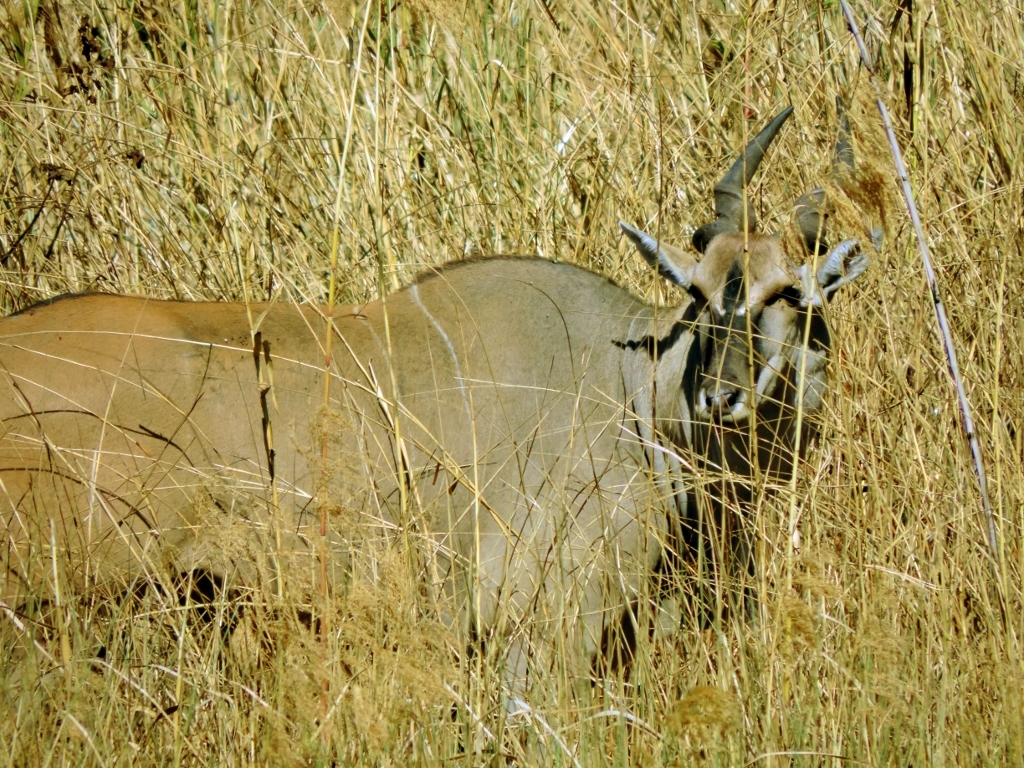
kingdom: Animalia
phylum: Chordata
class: Mammalia
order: Artiodactyla
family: Bovidae
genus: Taurotragus
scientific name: Taurotragus oryx
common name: Common eland
